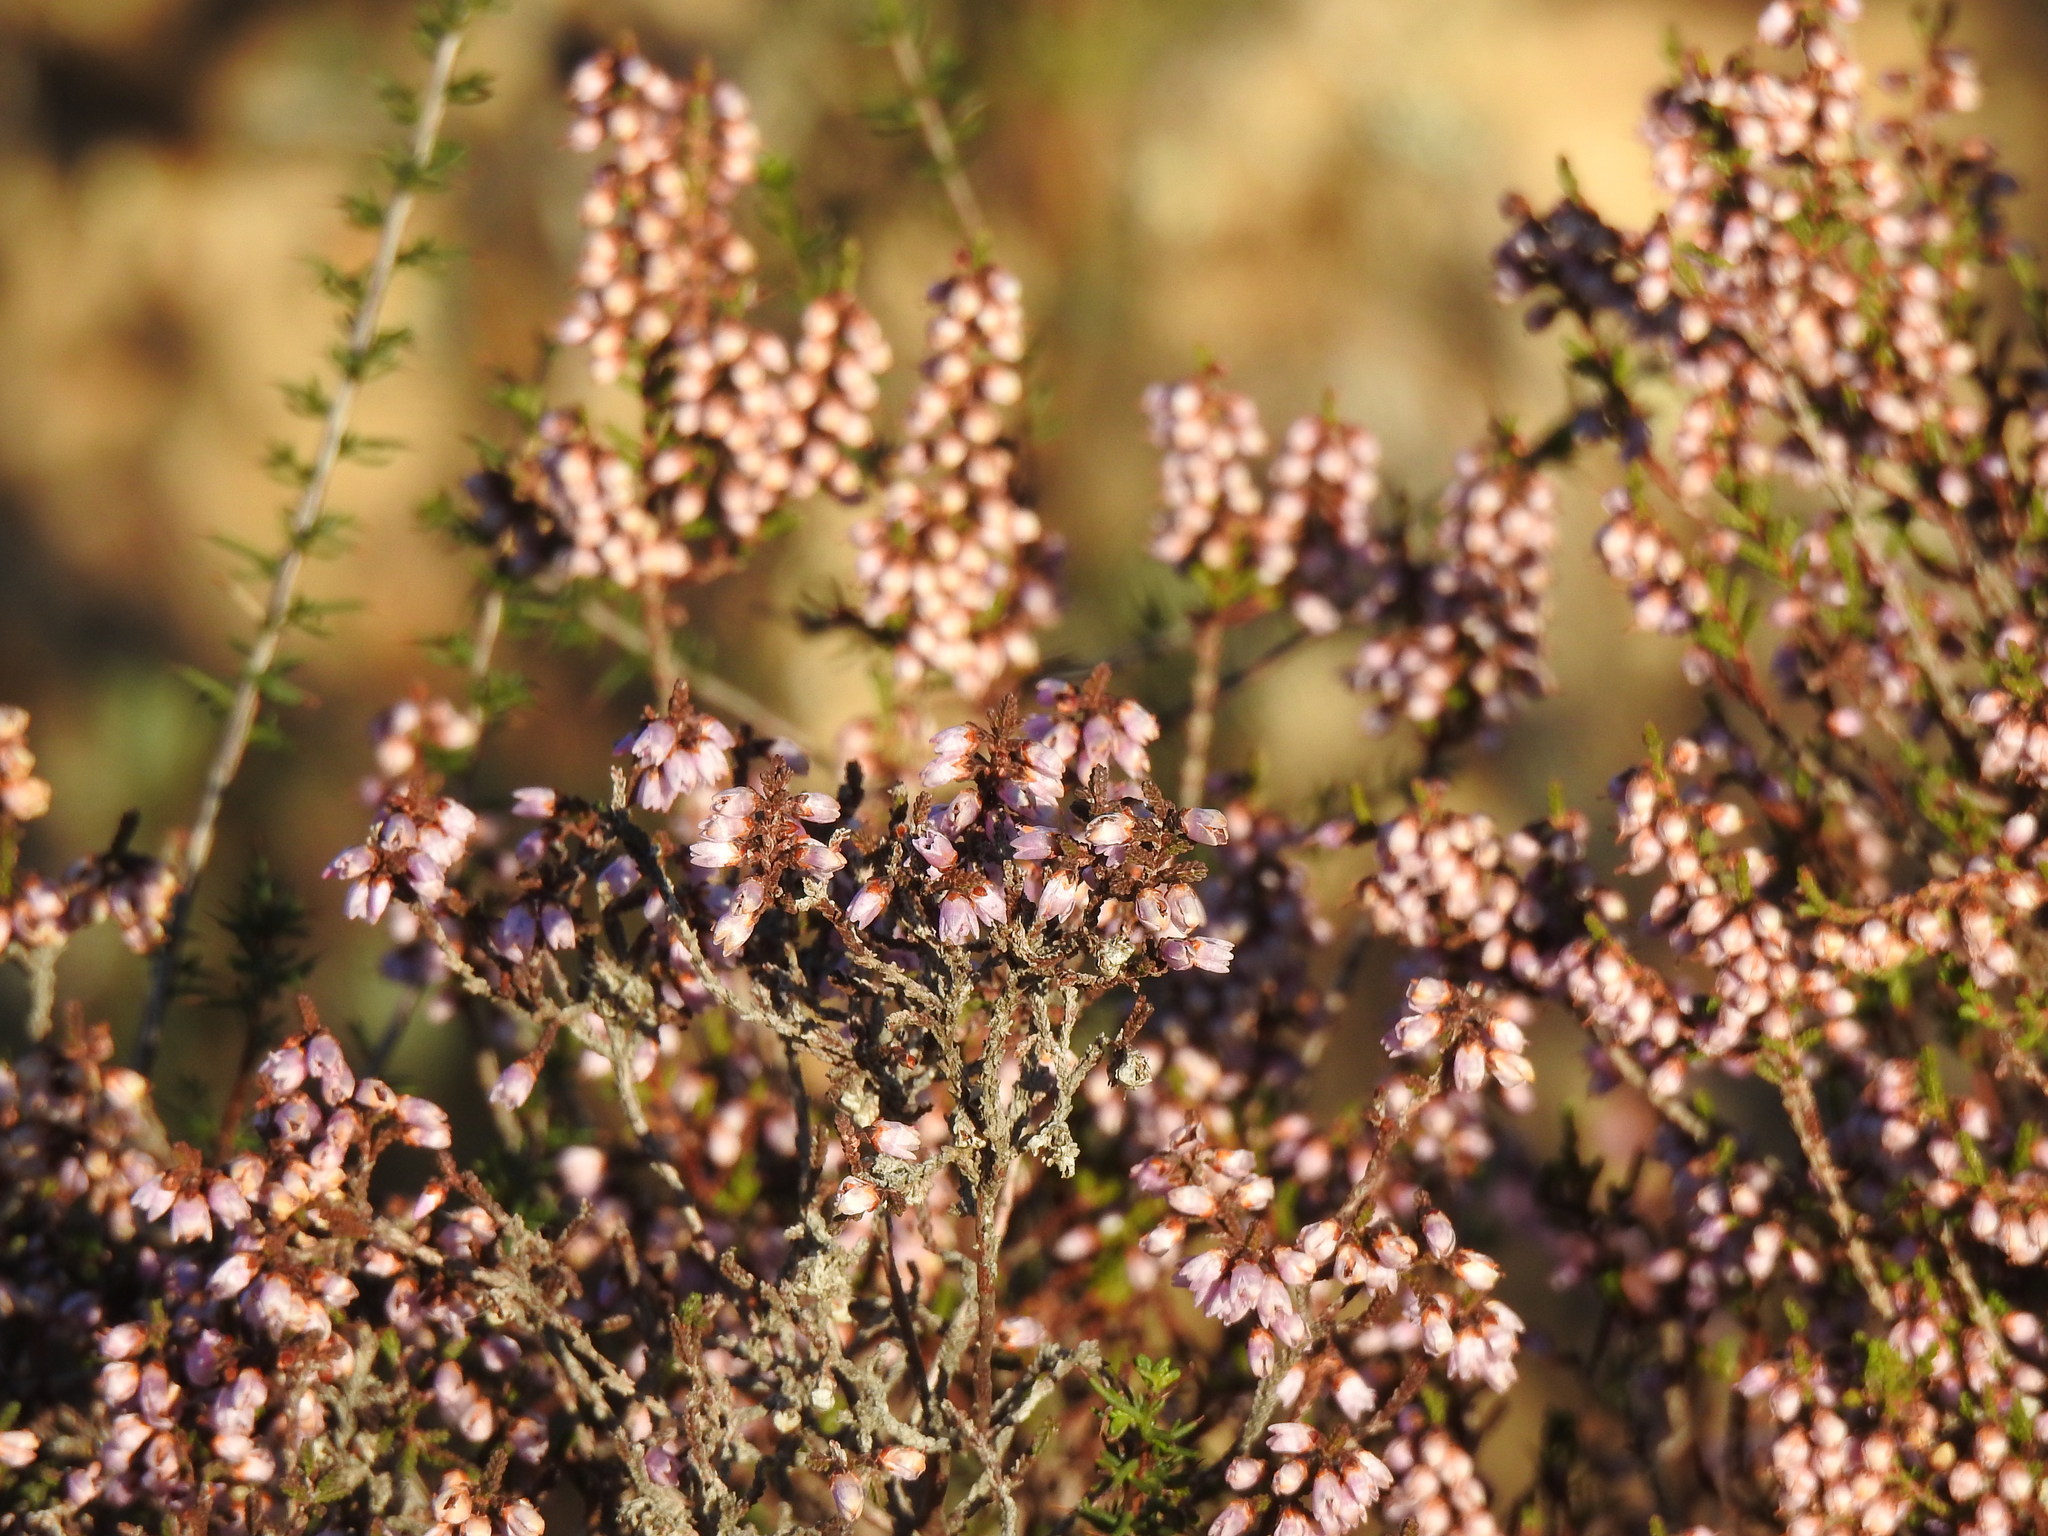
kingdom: Plantae
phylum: Tracheophyta
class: Magnoliopsida
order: Ericales
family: Ericaceae
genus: Calluna
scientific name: Calluna vulgaris
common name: Heather
